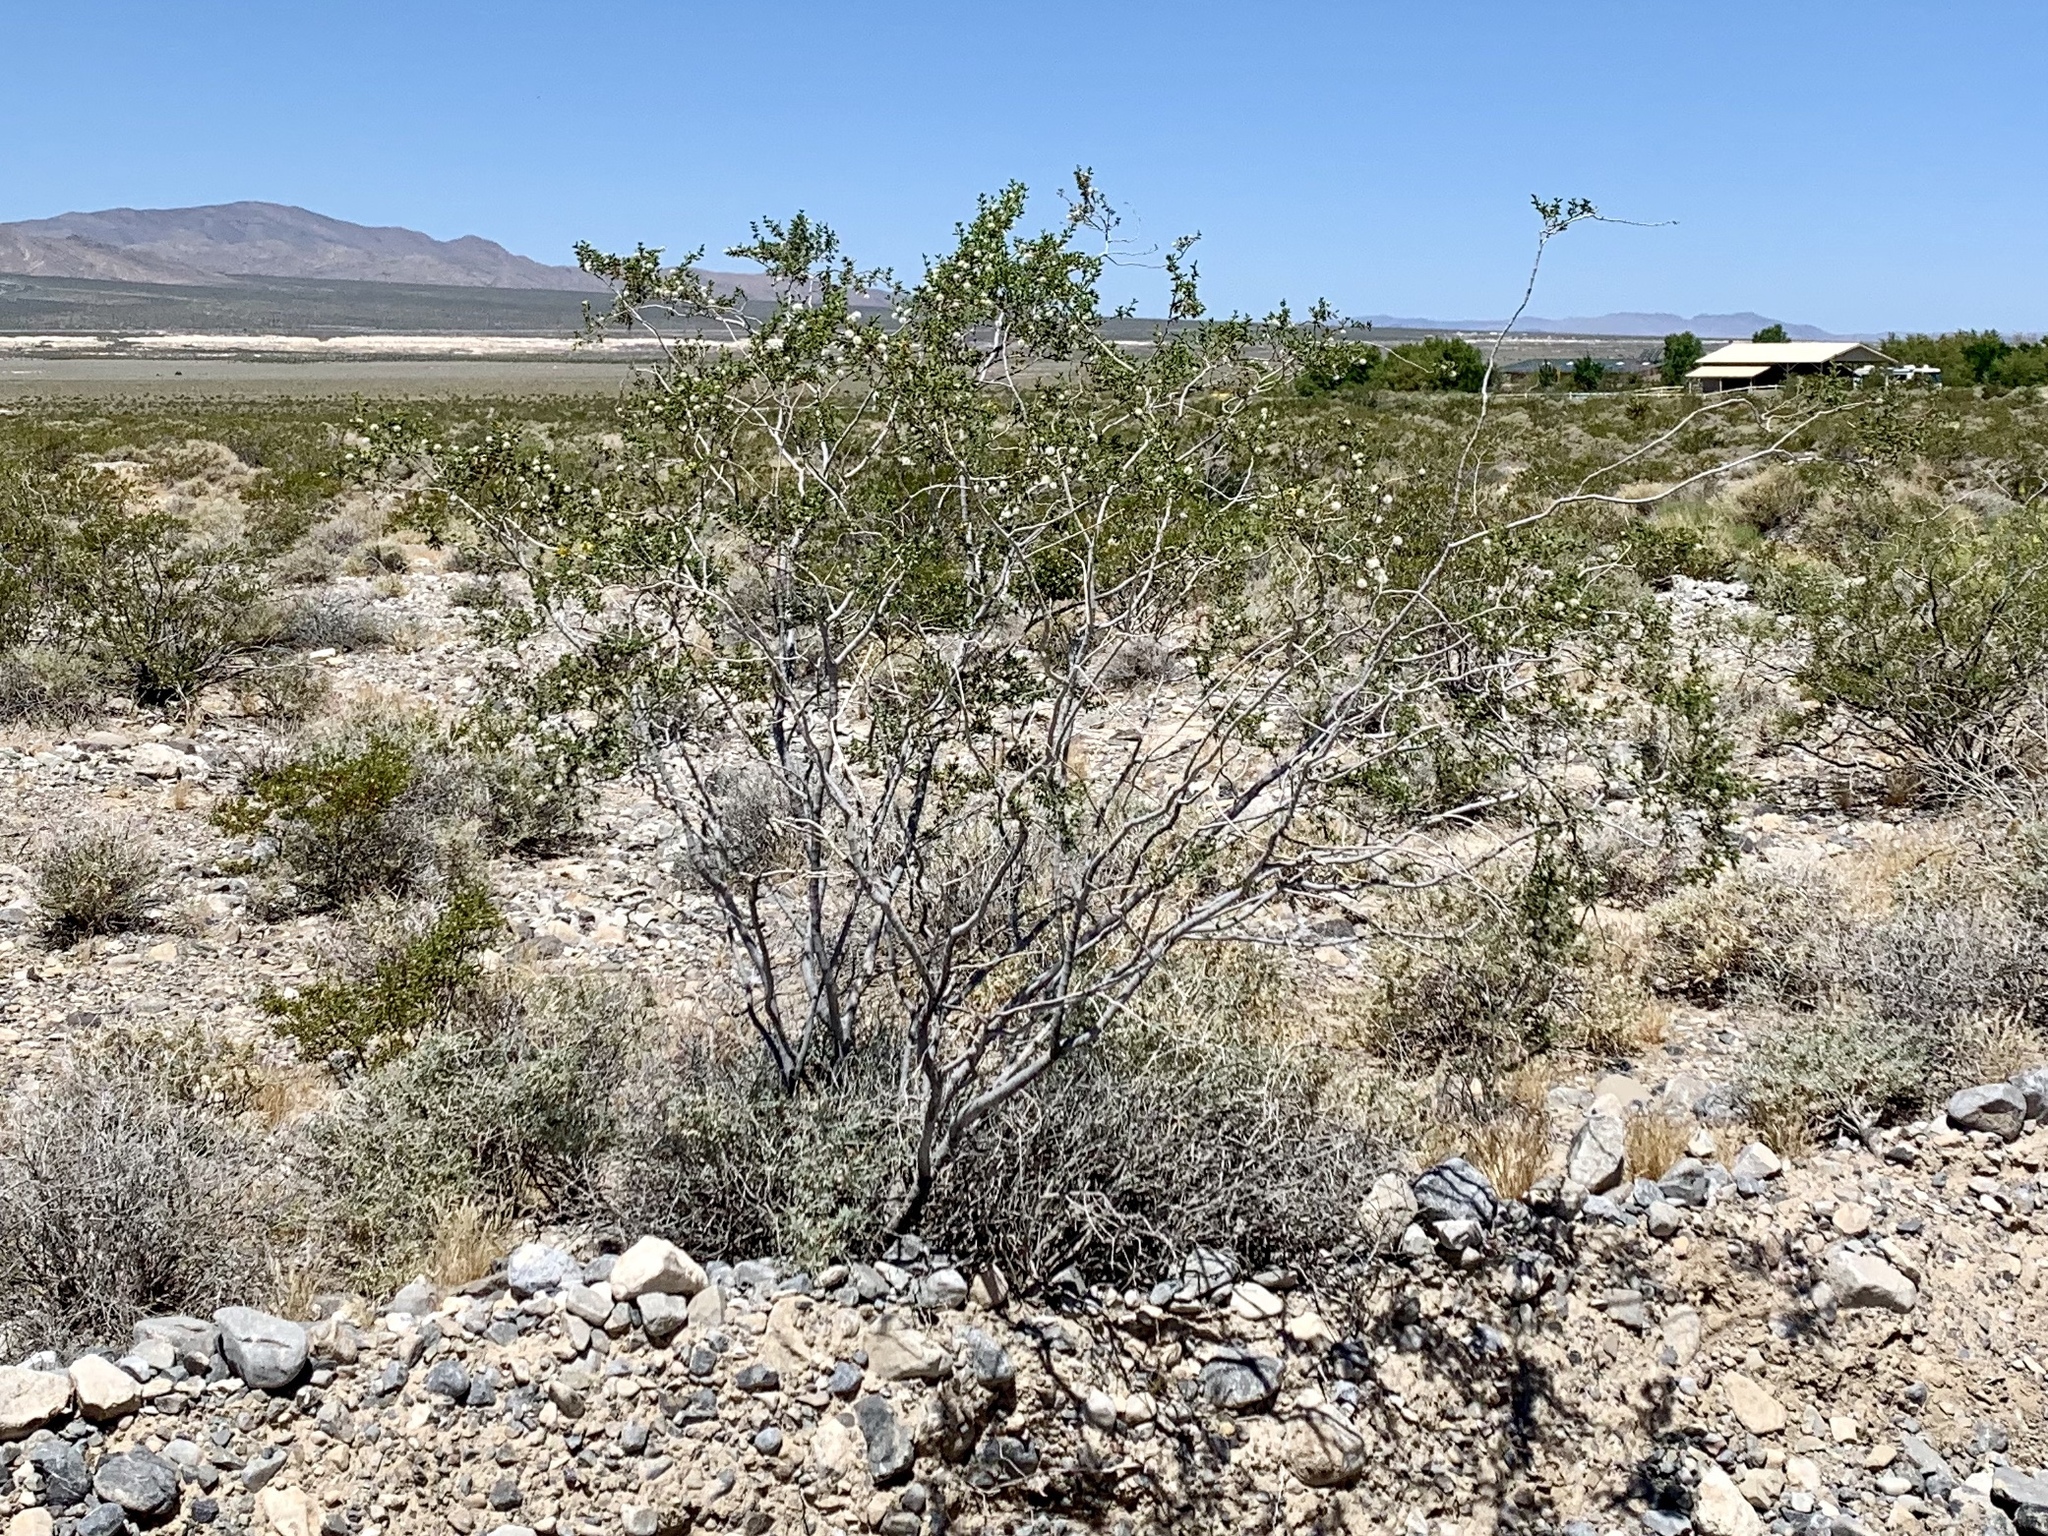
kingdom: Plantae
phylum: Tracheophyta
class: Magnoliopsida
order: Zygophyllales
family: Zygophyllaceae
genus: Larrea
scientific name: Larrea tridentata
